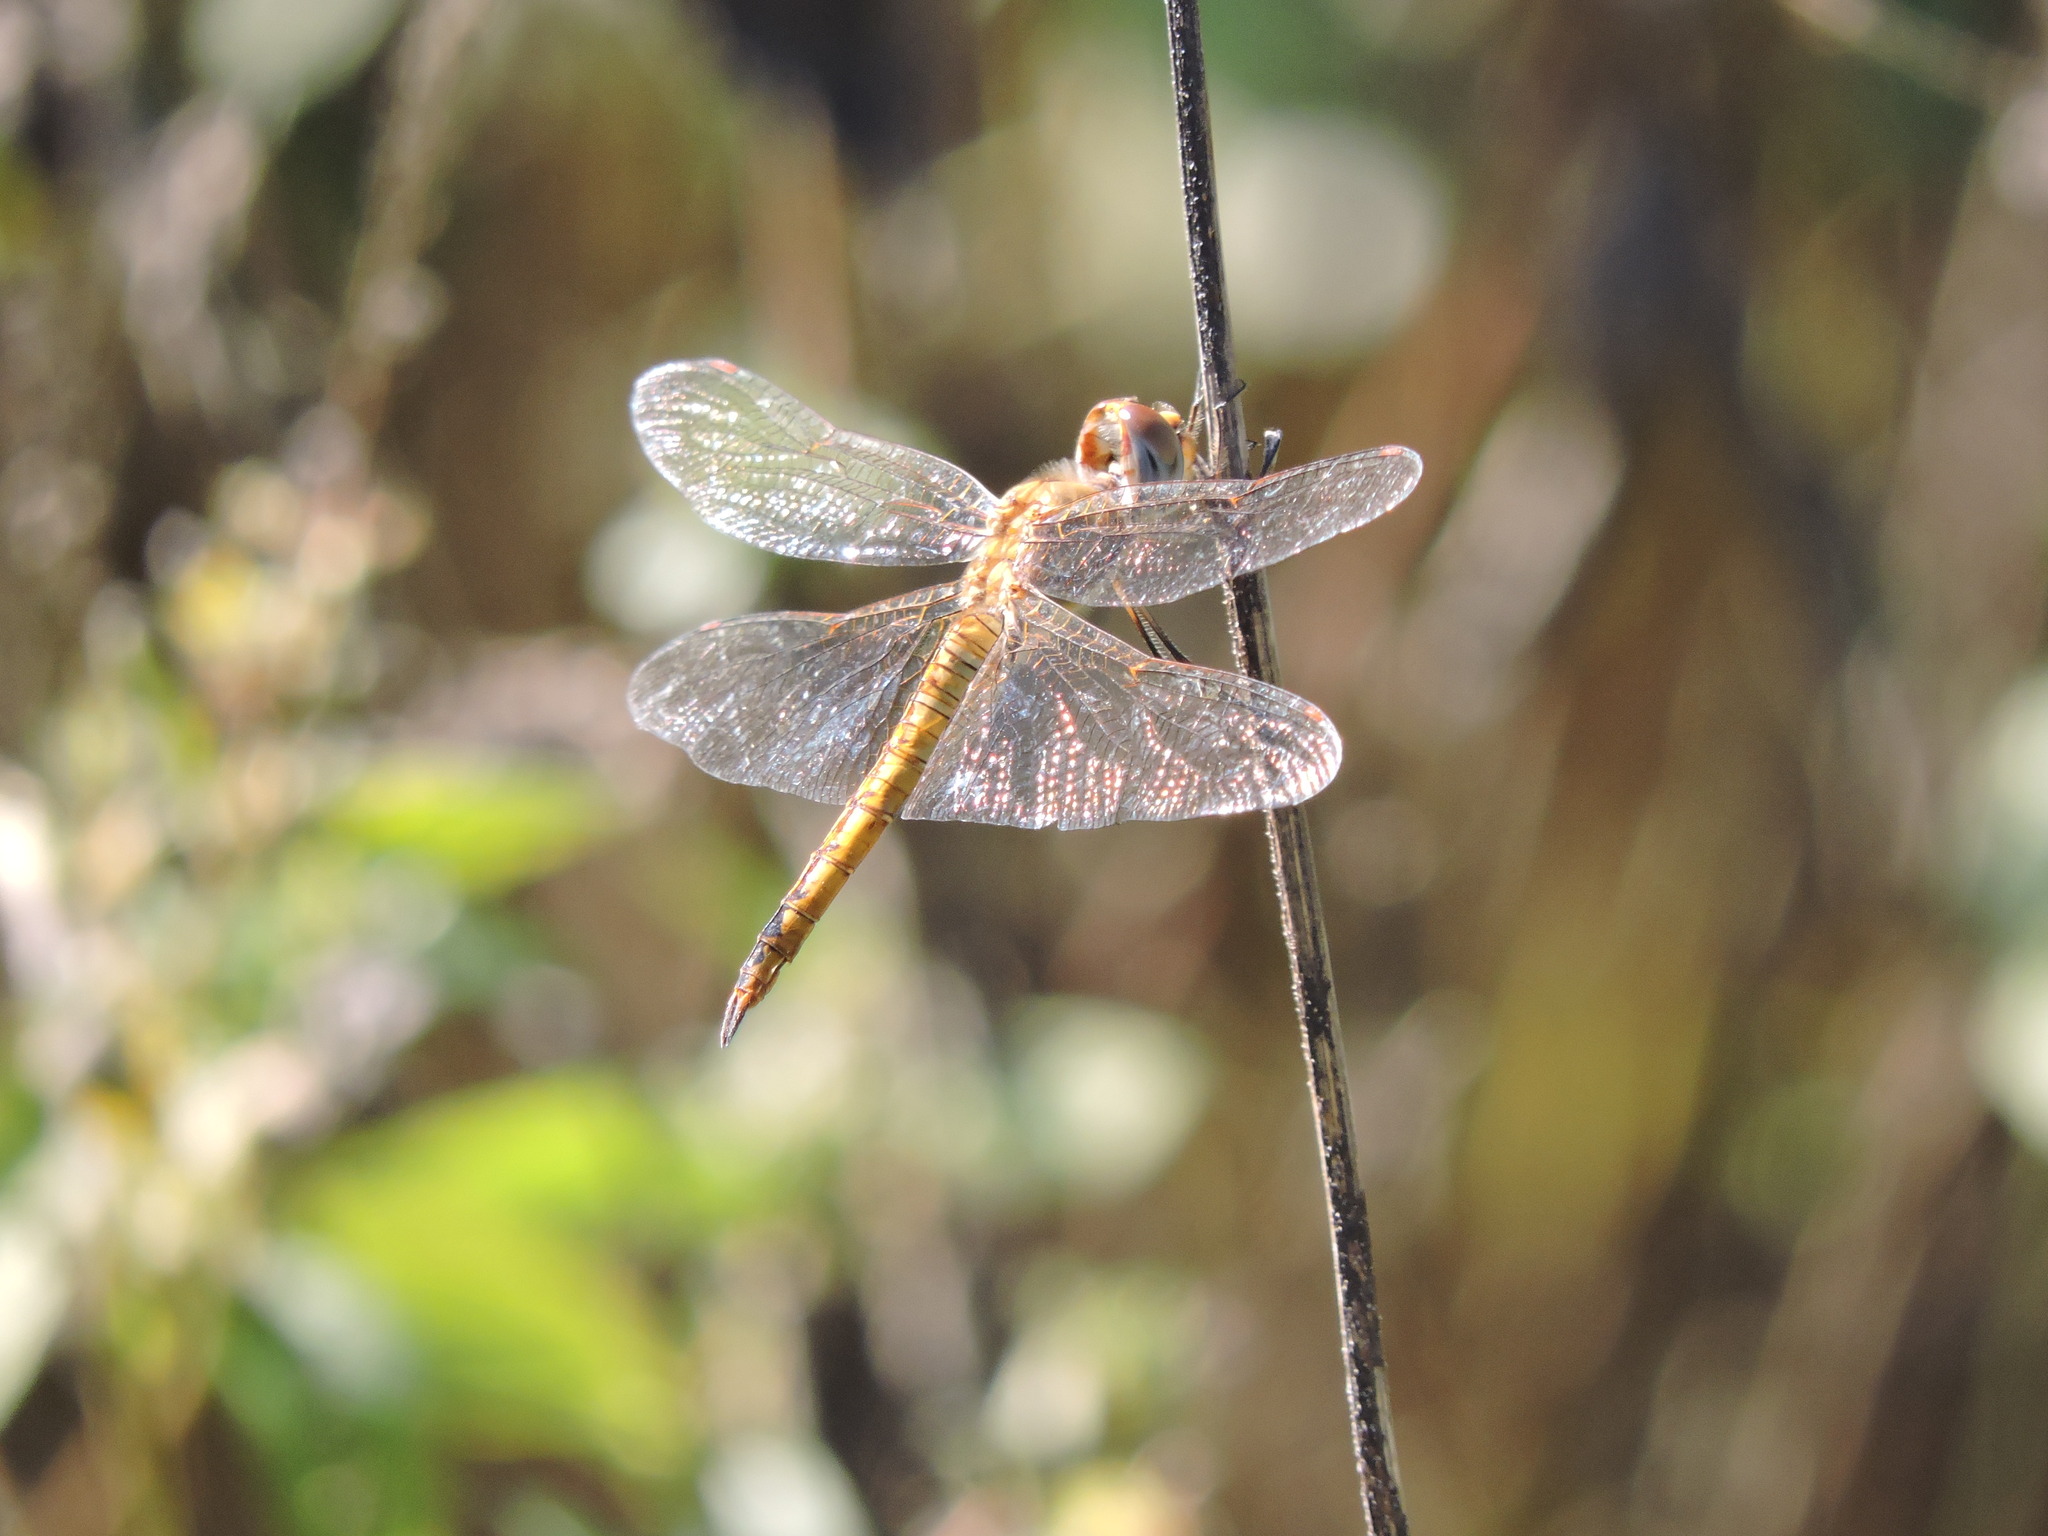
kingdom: Animalia
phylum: Arthropoda
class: Insecta
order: Odonata
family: Libellulidae
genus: Pantala
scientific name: Pantala flavescens
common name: Wandering glider
